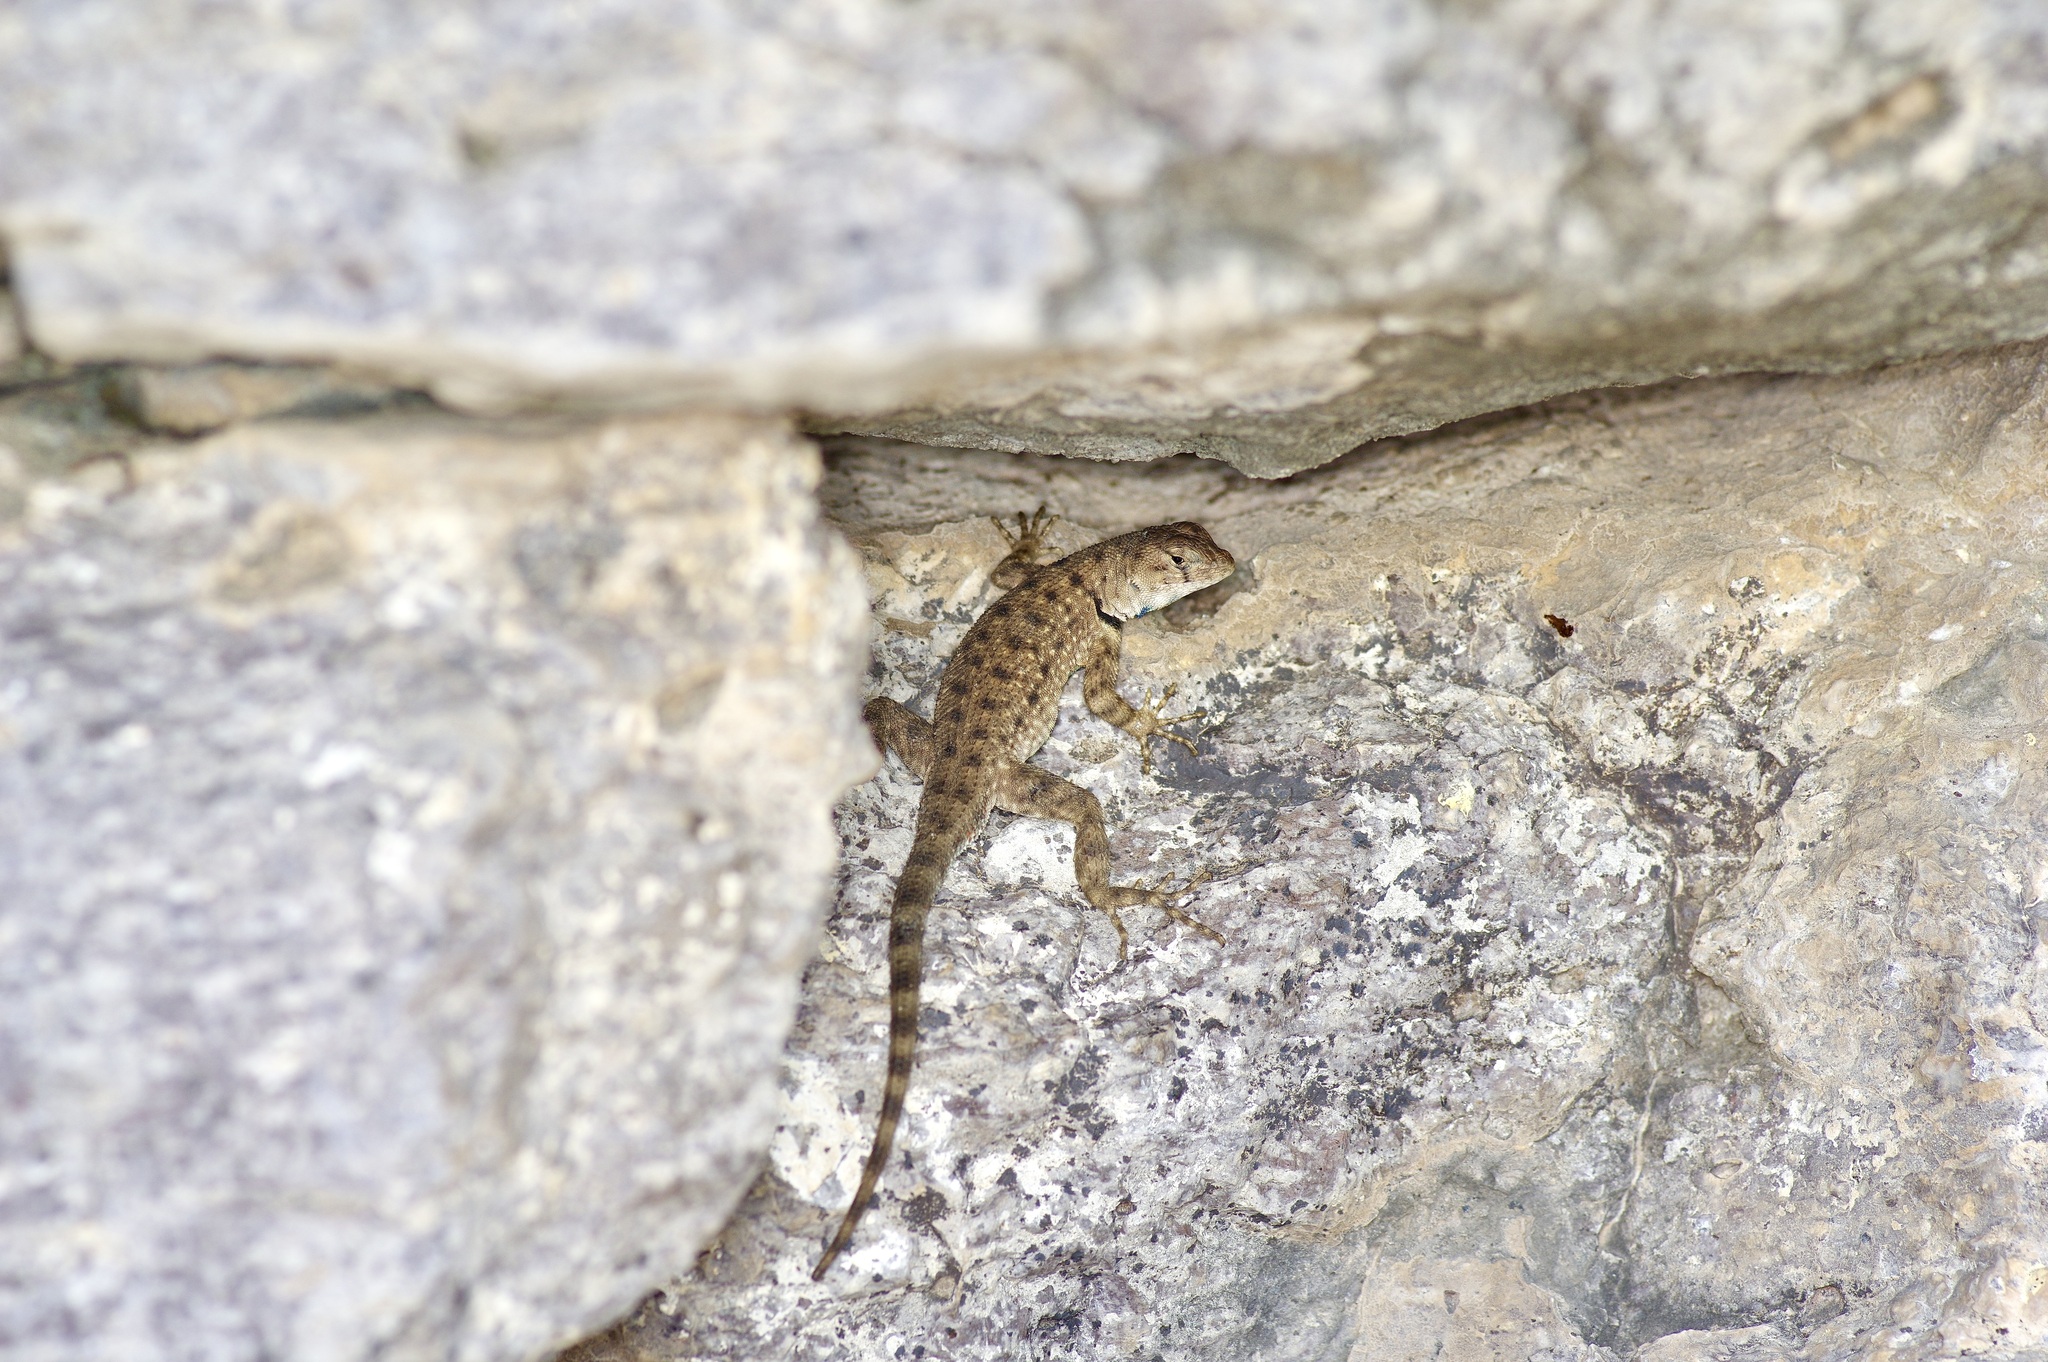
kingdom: Animalia
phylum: Chordata
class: Squamata
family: Phrynosomatidae
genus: Sceloporus
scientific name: Sceloporus merriami
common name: Canyon lizard
